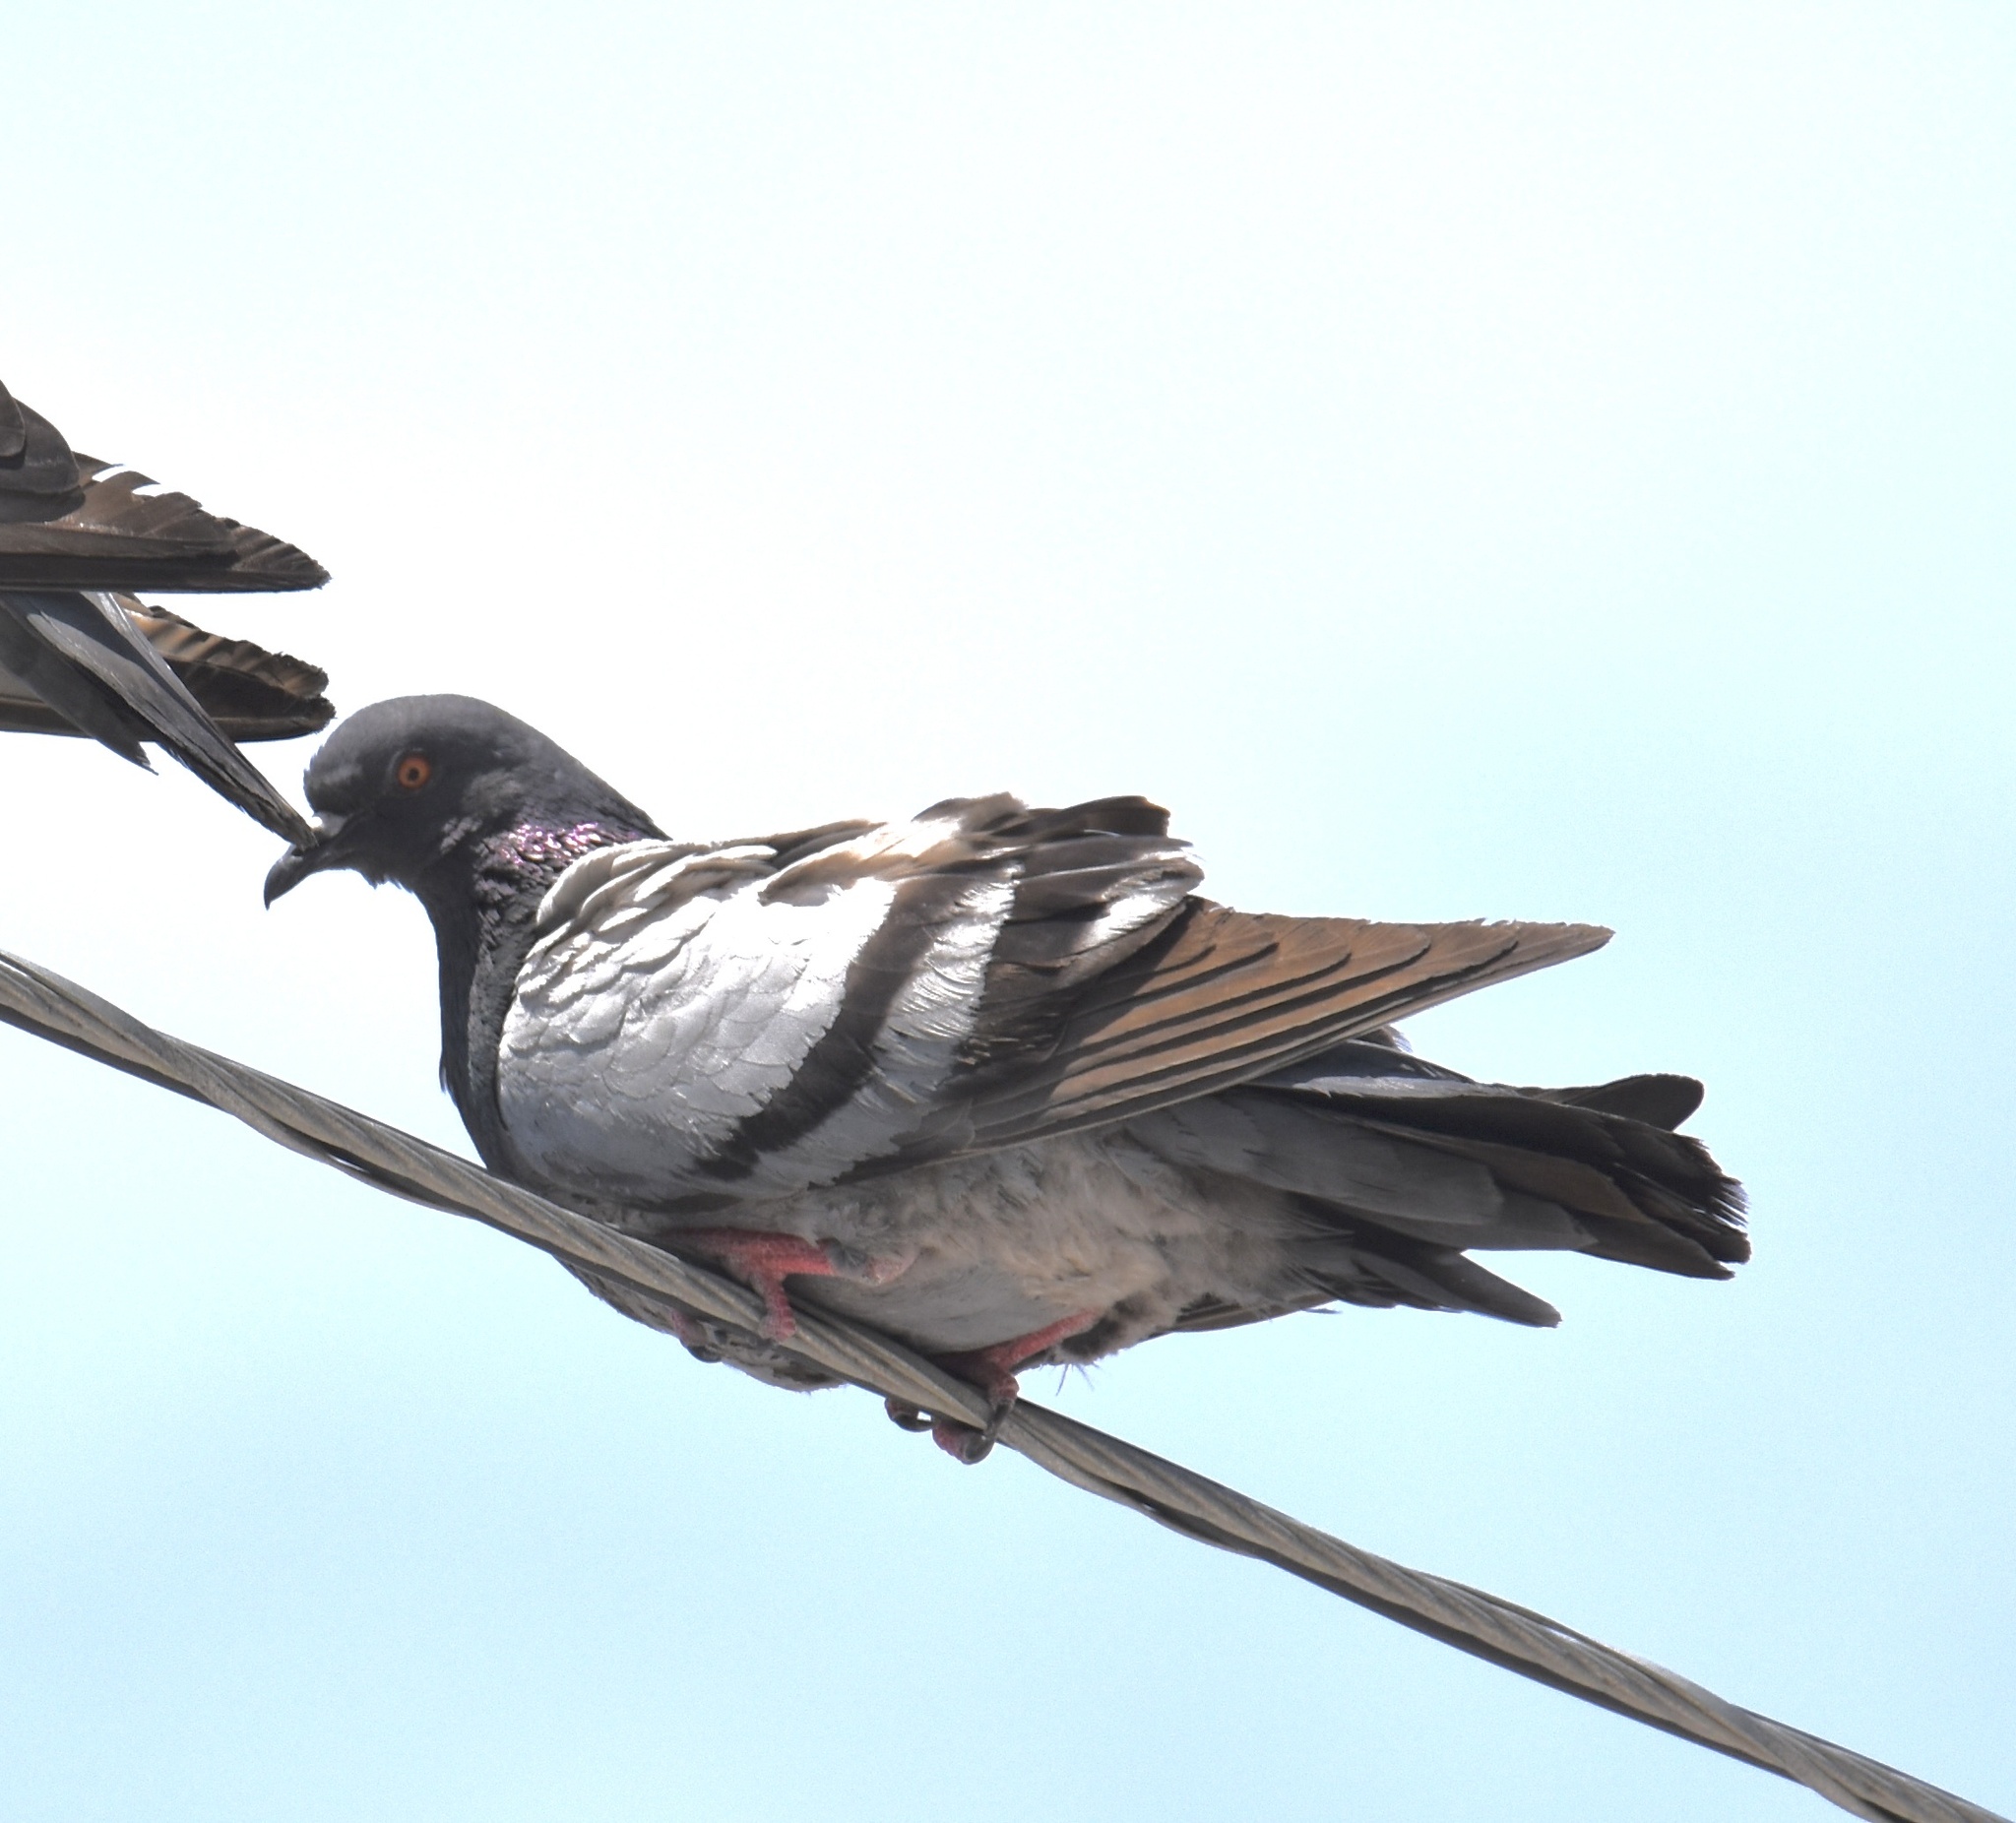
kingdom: Animalia
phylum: Chordata
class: Aves
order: Columbiformes
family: Columbidae
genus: Columba
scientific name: Columba livia
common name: Rock pigeon
